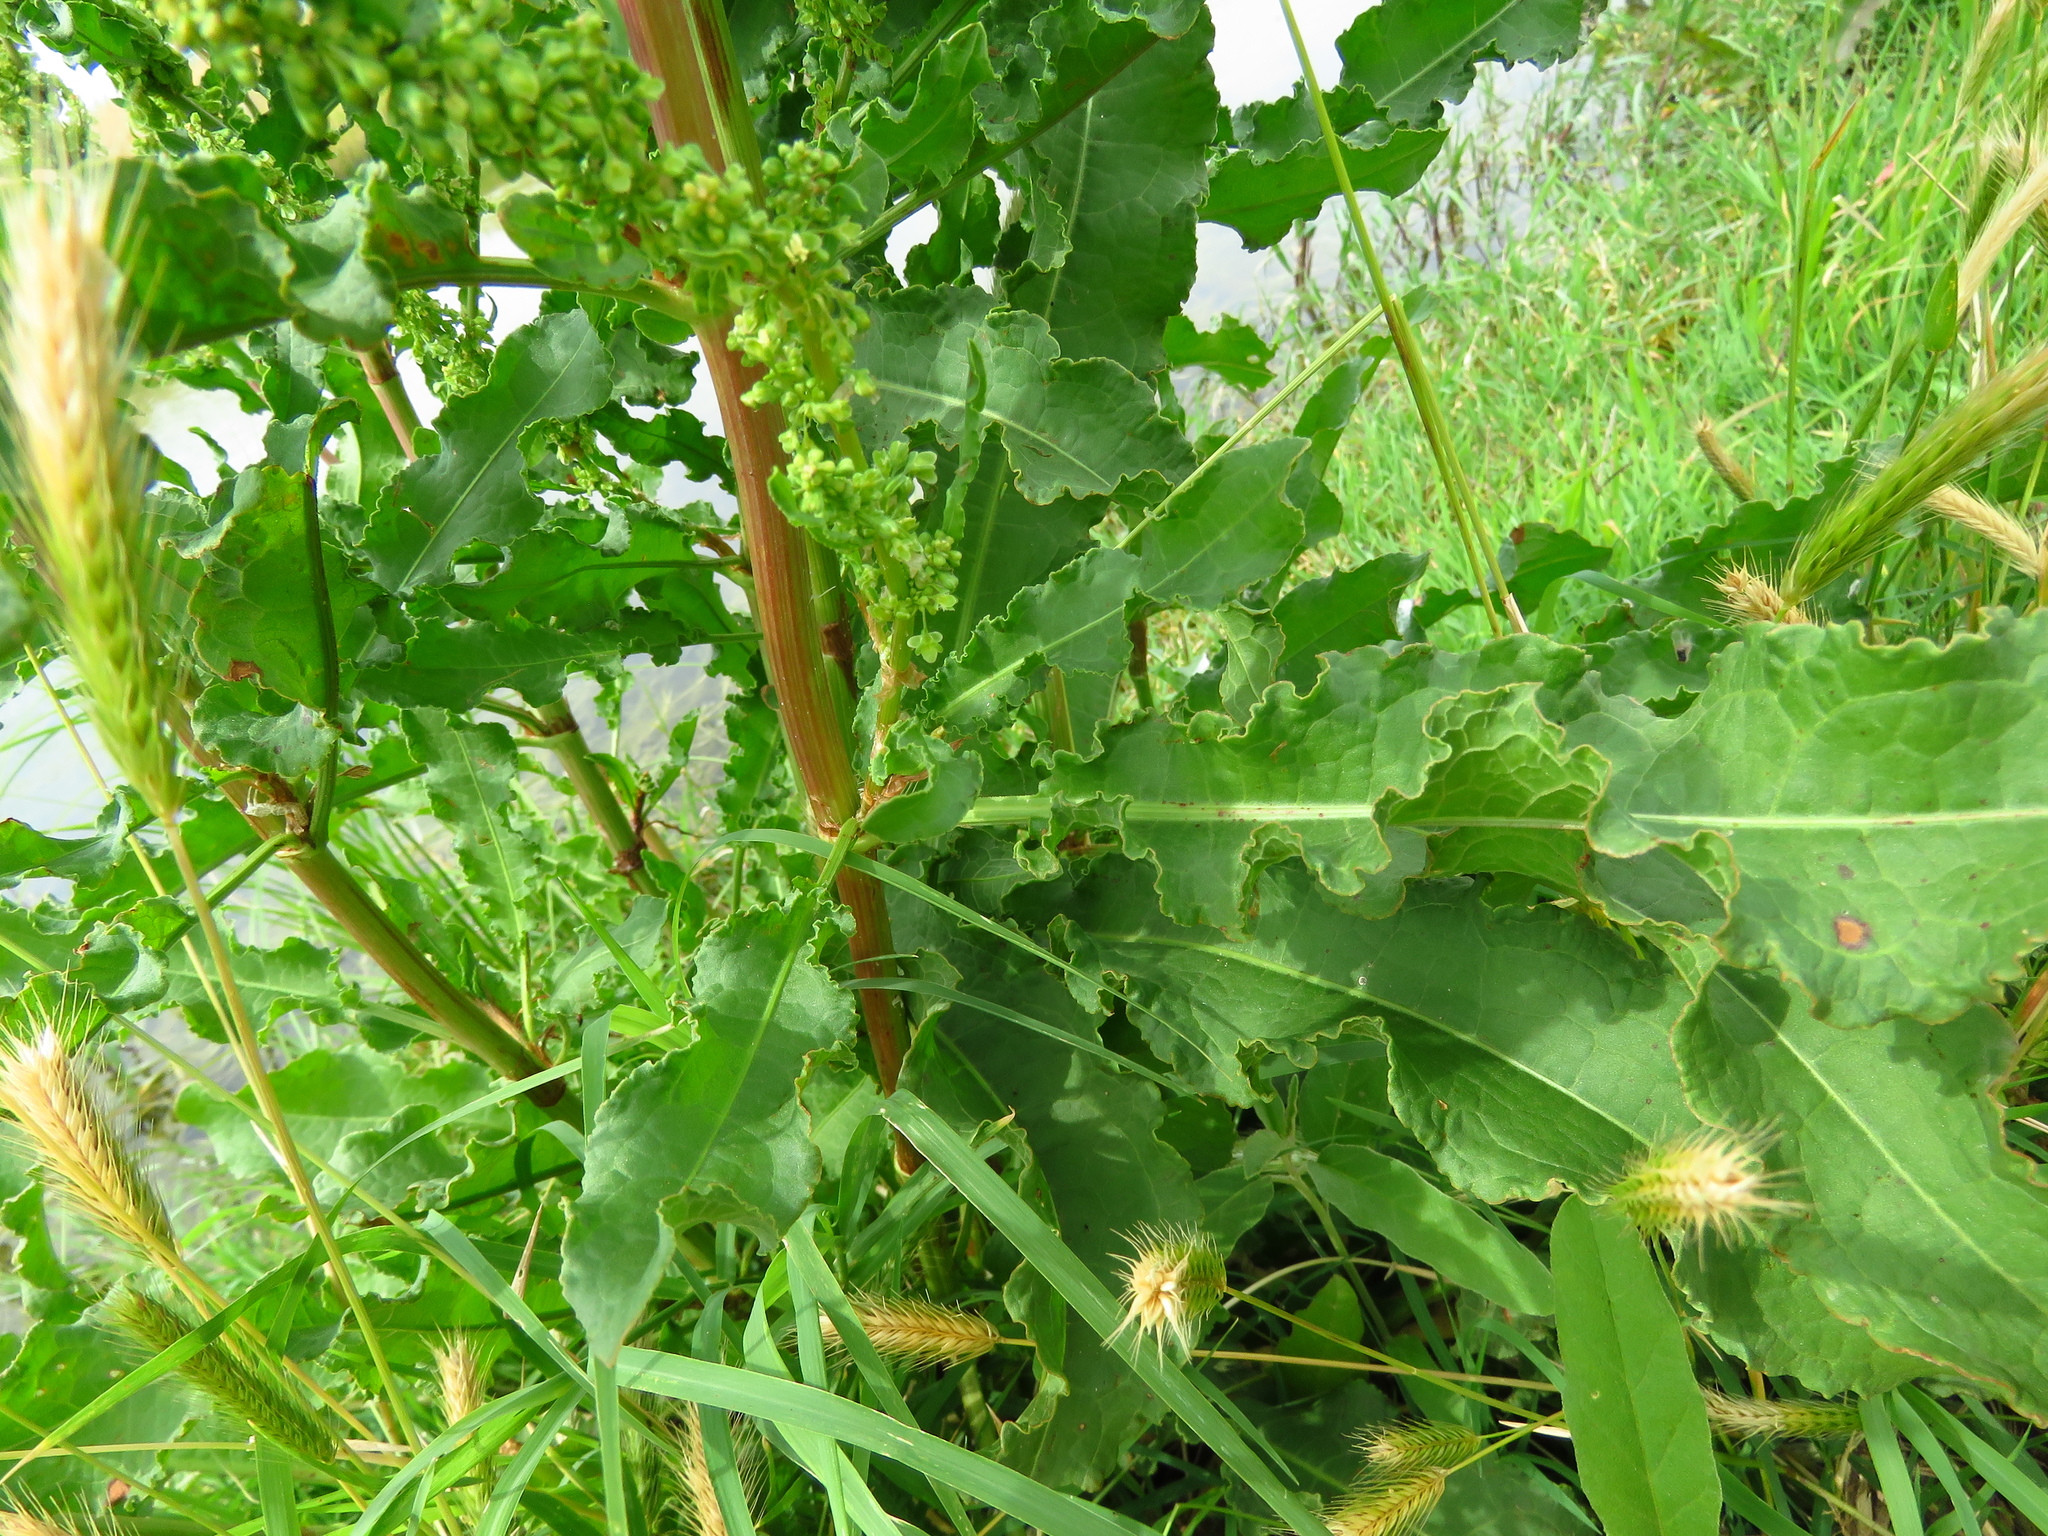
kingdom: Plantae
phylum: Tracheophyta
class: Magnoliopsida
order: Caryophyllales
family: Polygonaceae
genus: Rumex
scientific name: Rumex crispus
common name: Curled dock
